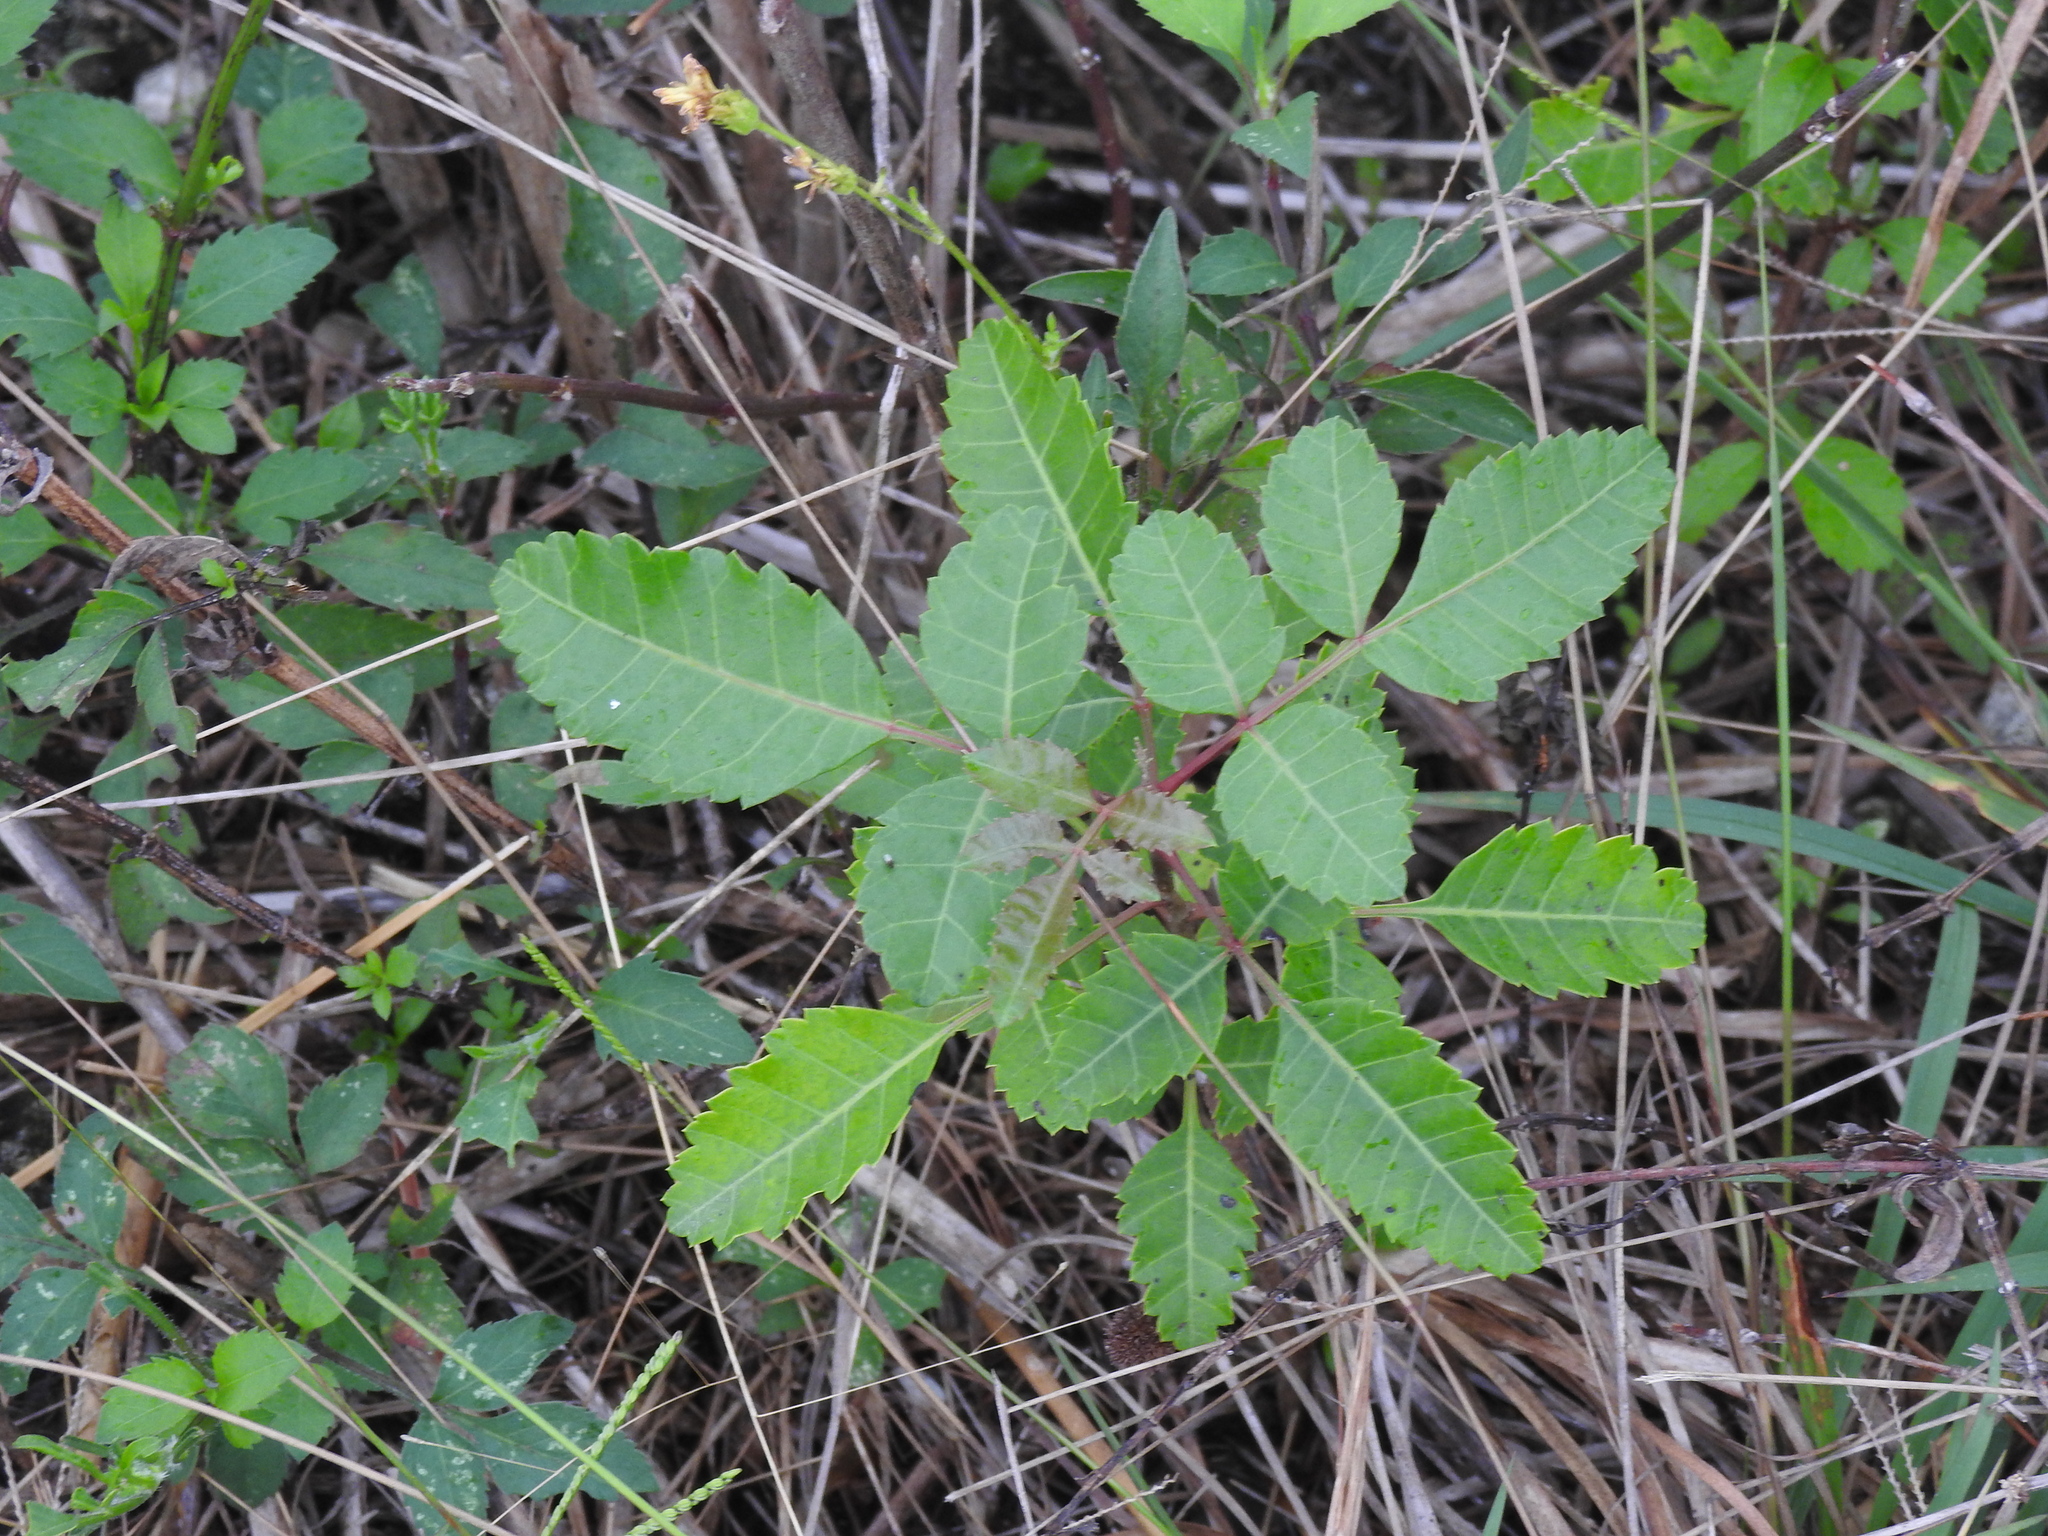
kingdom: Plantae
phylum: Tracheophyta
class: Magnoliopsida
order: Sapindales
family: Anacardiaceae
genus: Schinus
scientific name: Schinus terebinthifolia
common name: Brazilian peppertree
